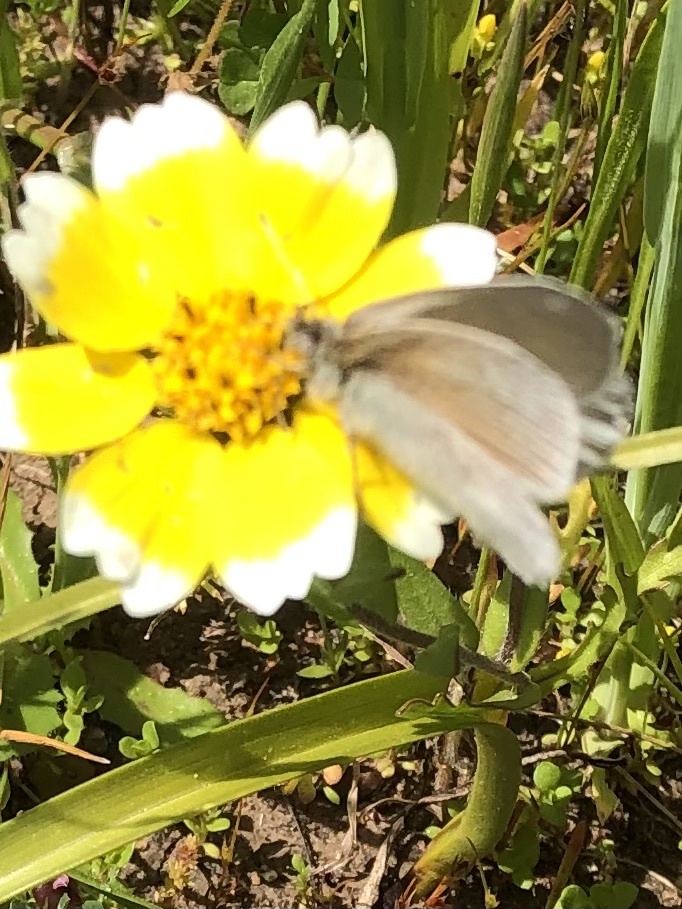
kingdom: Animalia
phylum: Arthropoda
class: Insecta
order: Lepidoptera
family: Nymphalidae
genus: Coenonympha
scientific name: Coenonympha california
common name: Common ringlet
